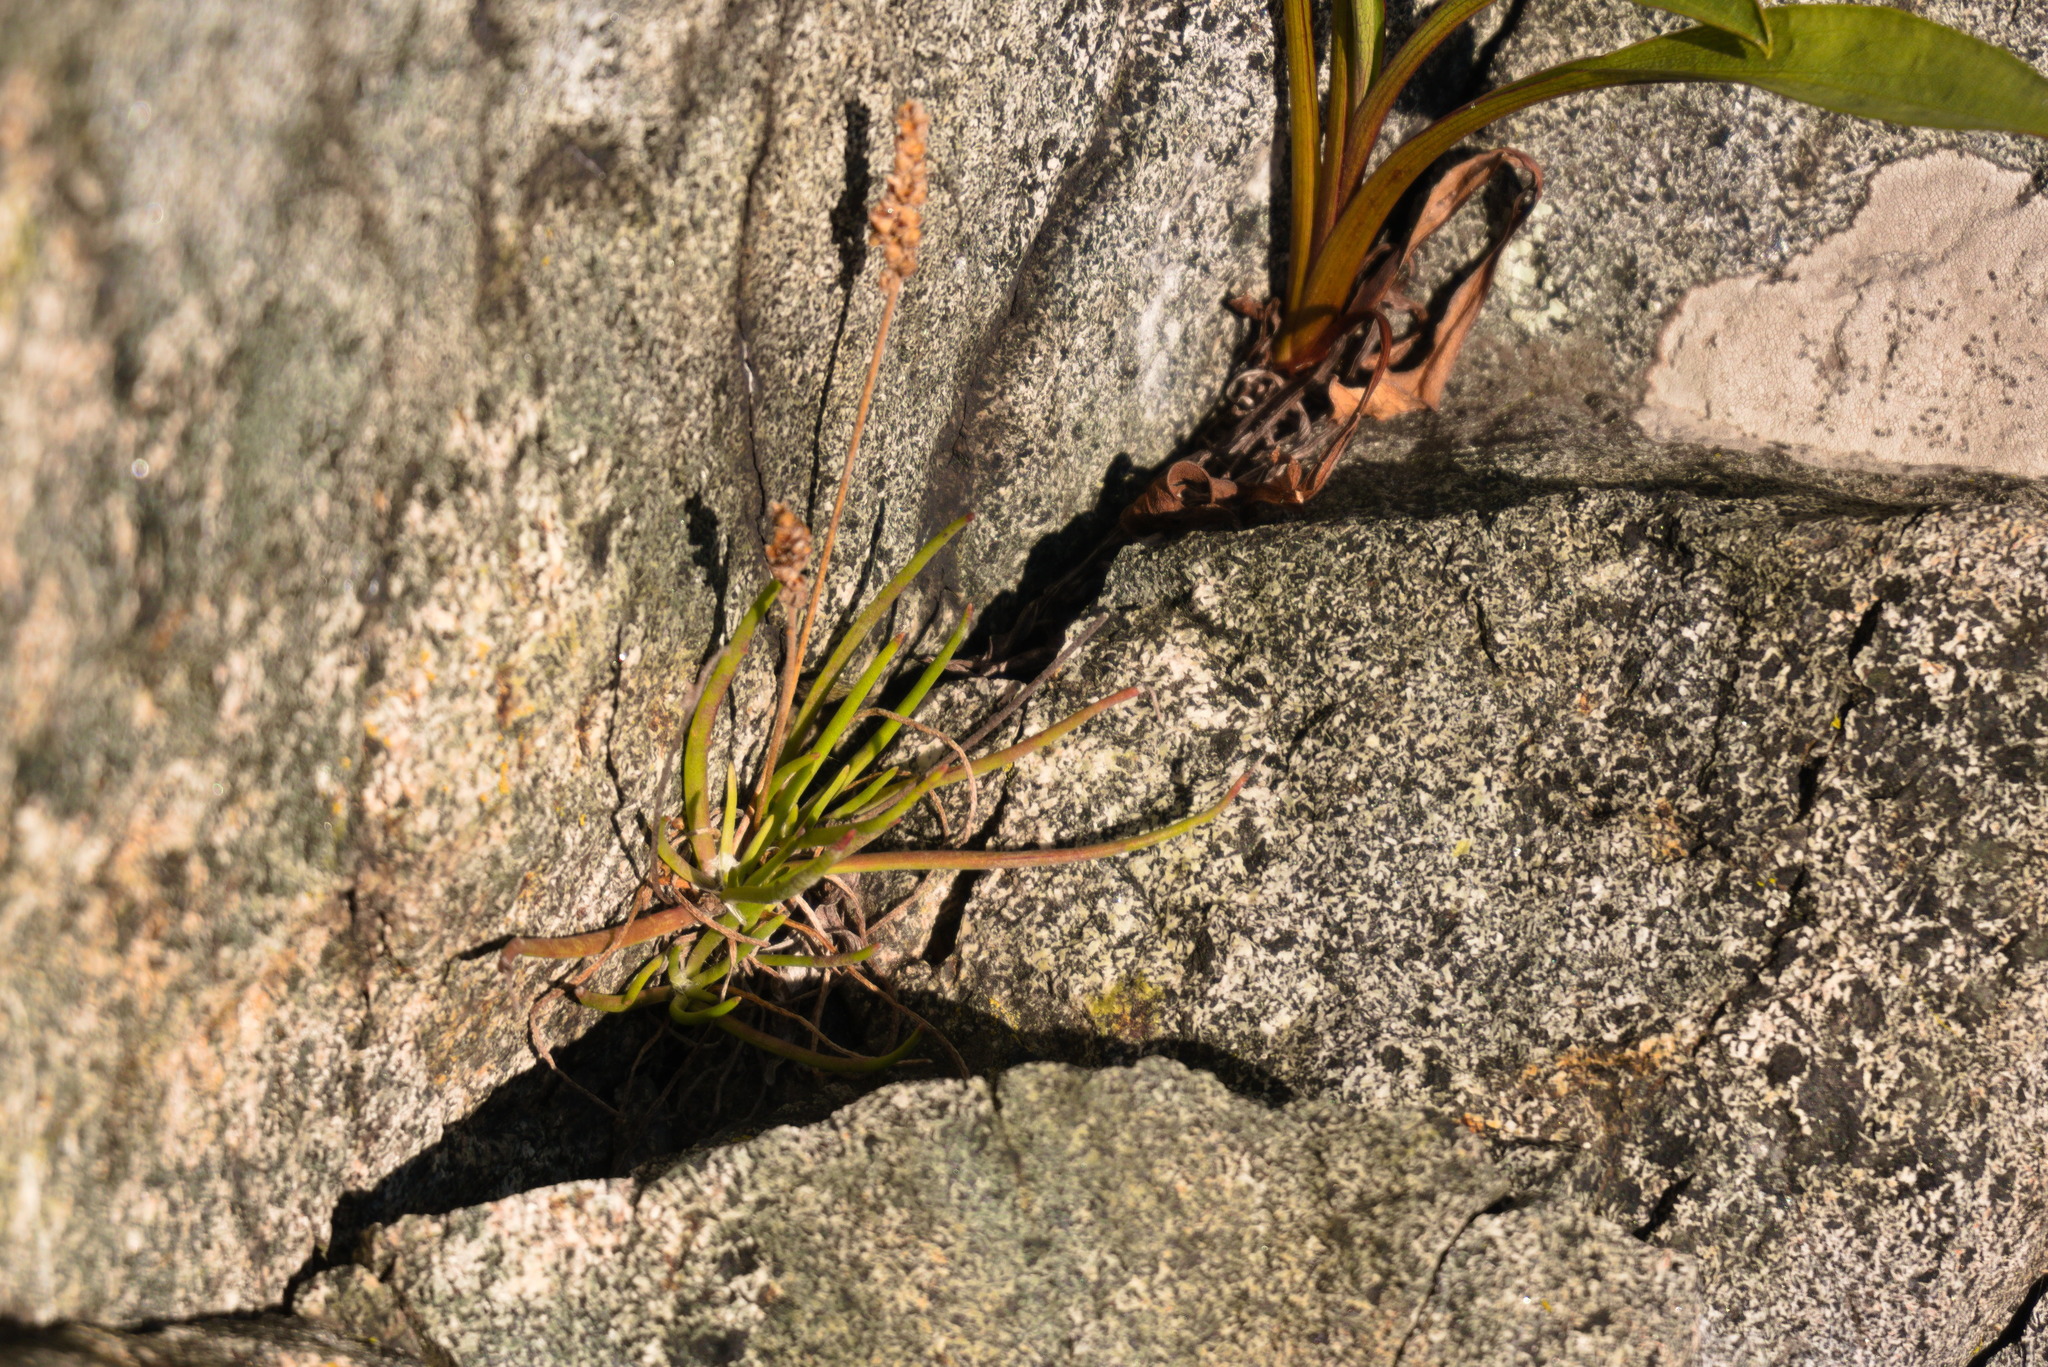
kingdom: Plantae
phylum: Tracheophyta
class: Magnoliopsida
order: Lamiales
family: Plantaginaceae
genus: Plantago
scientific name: Plantago maritima
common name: Sea plantain
